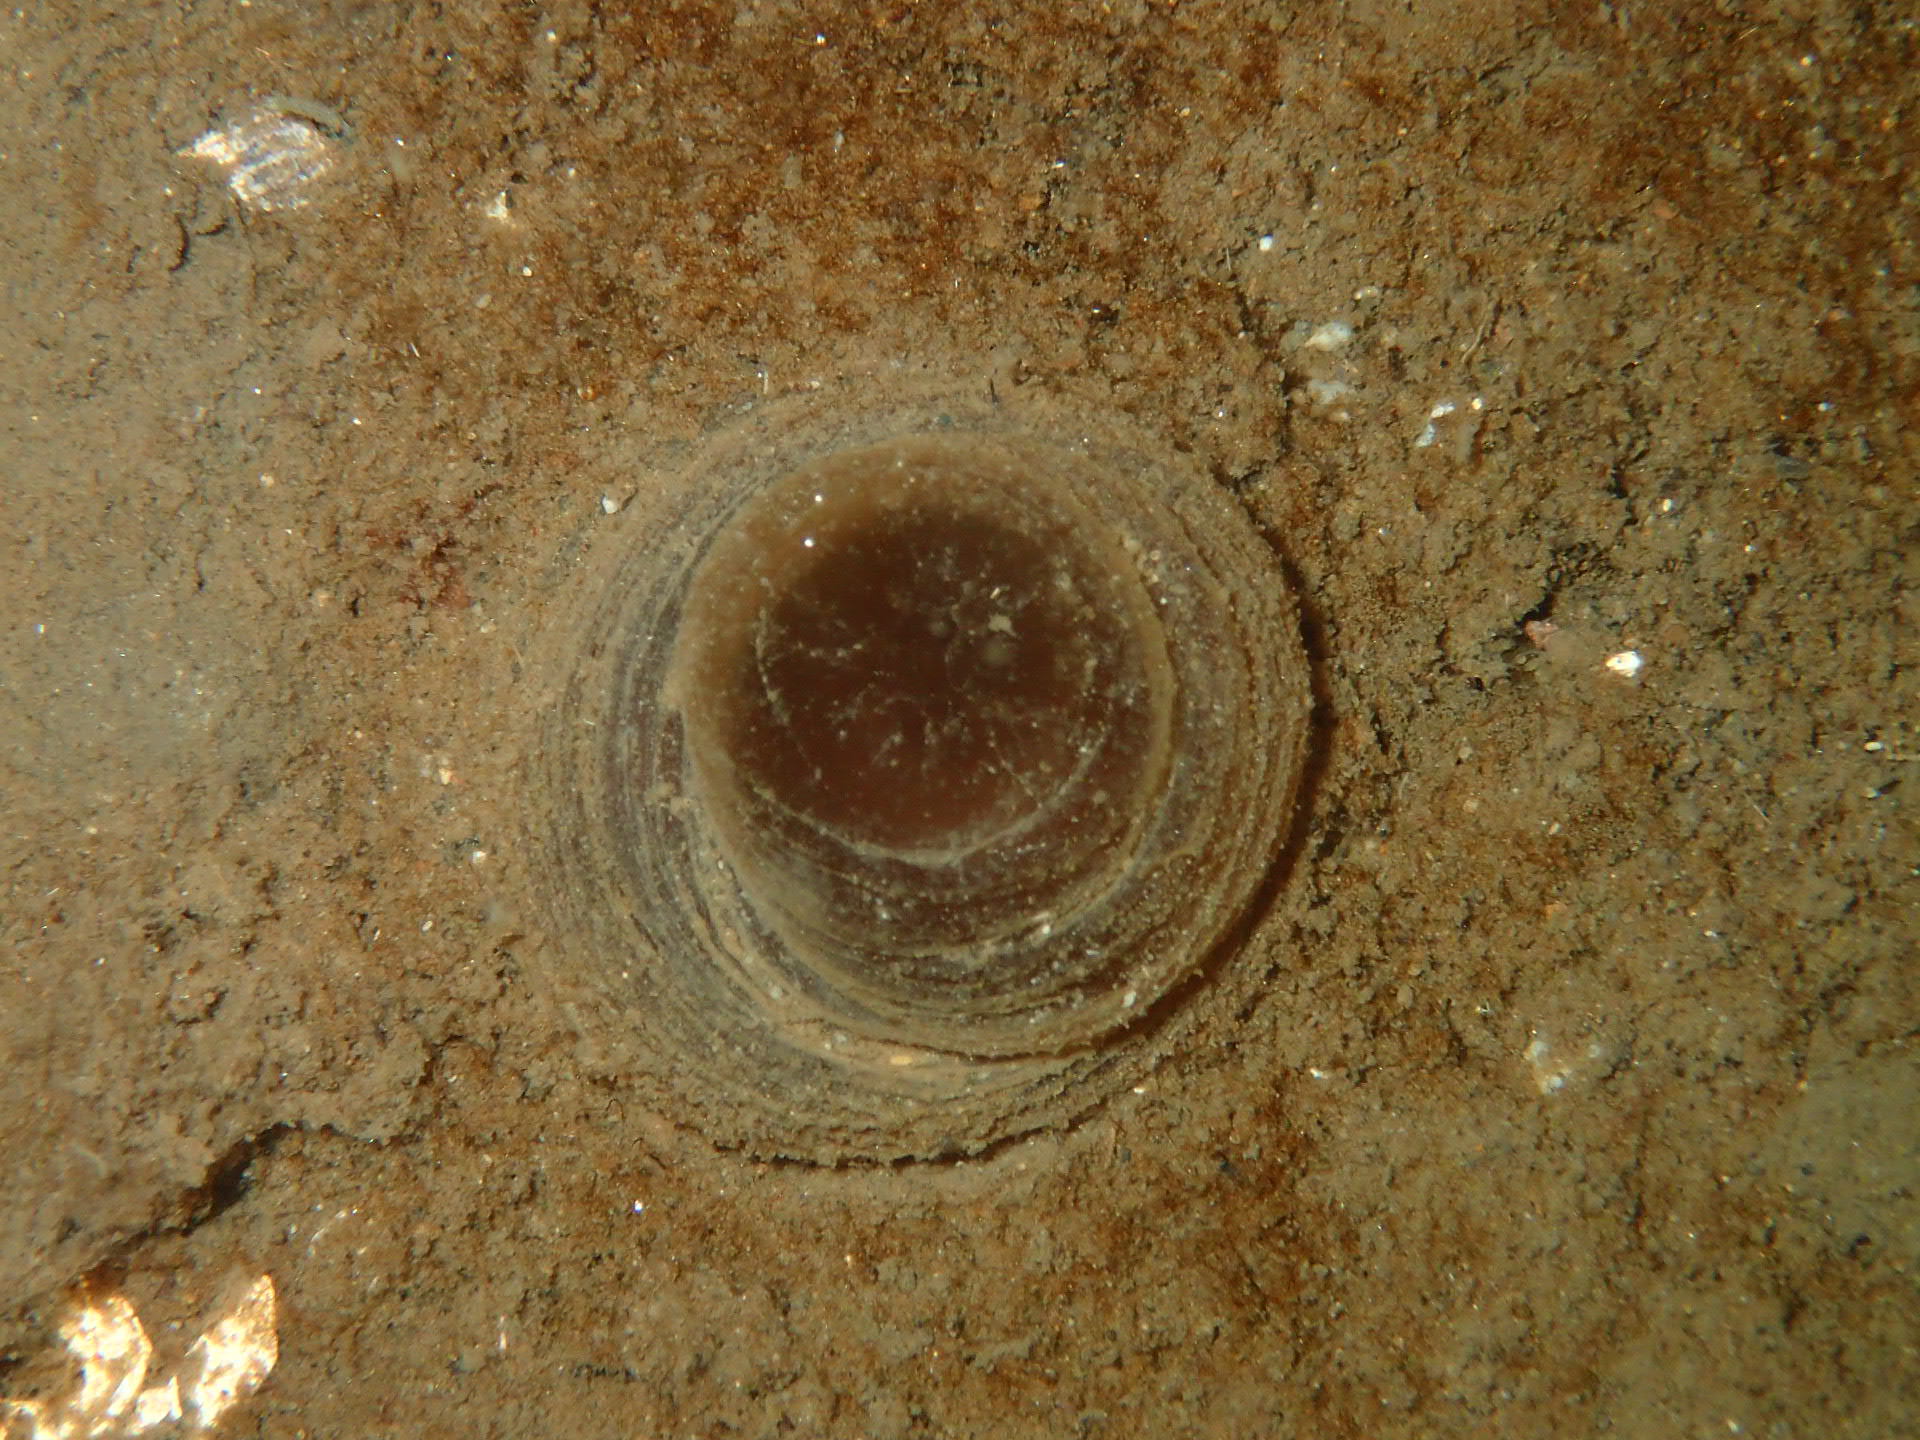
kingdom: Animalia
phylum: Cnidaria
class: Anthozoa
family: Cerianthidae
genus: Pachycerianthus
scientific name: Pachycerianthus borealis
